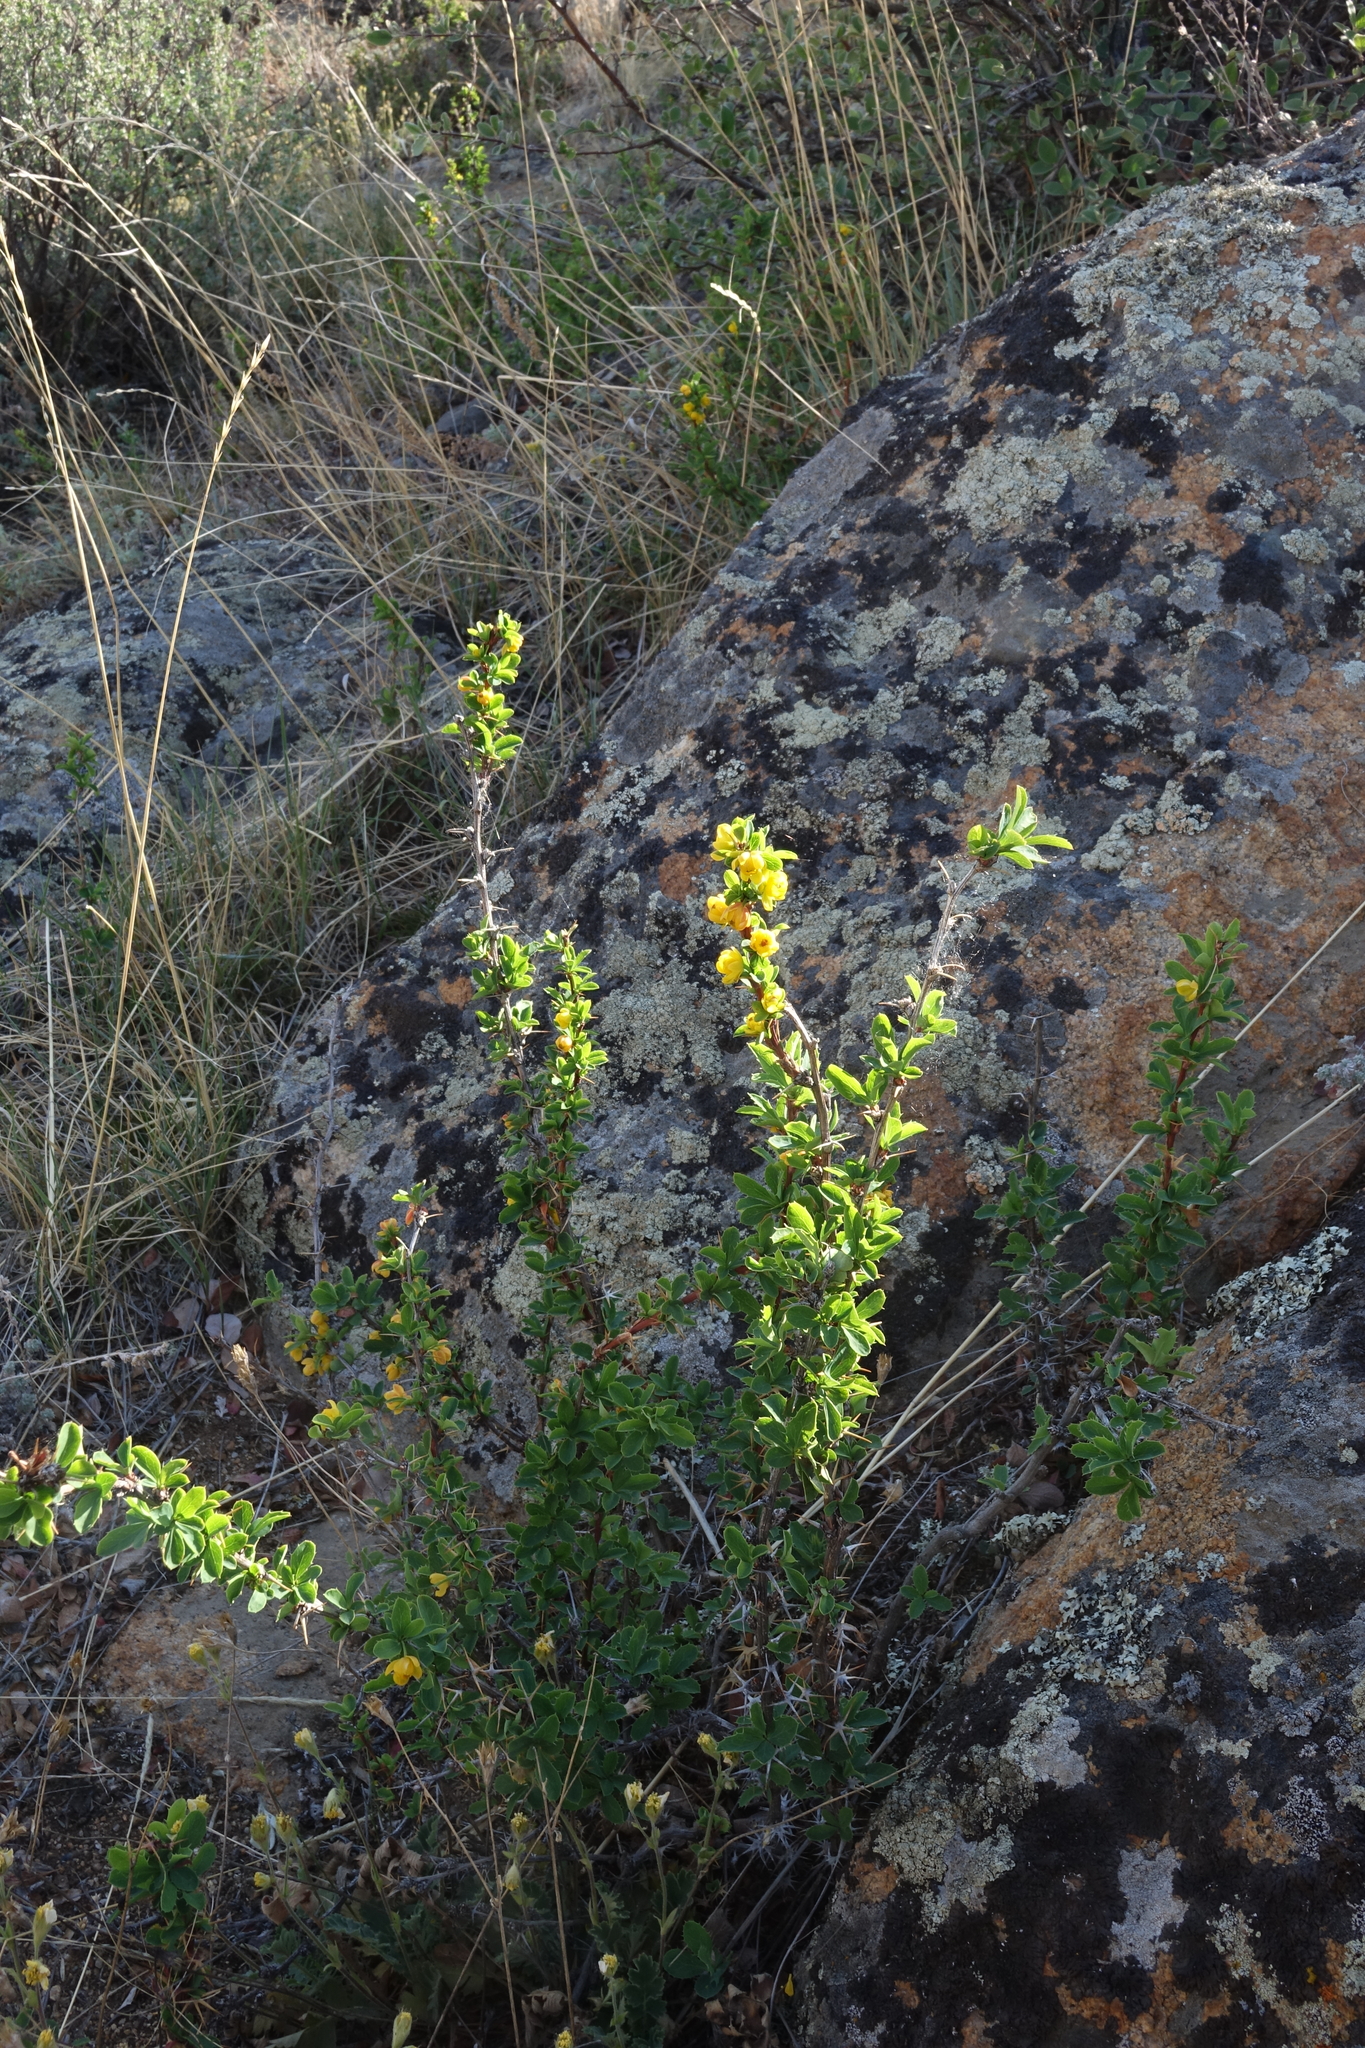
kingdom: Plantae
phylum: Tracheophyta
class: Magnoliopsida
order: Ranunculales
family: Berberidaceae
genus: Berberis
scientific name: Berberis sibirica
